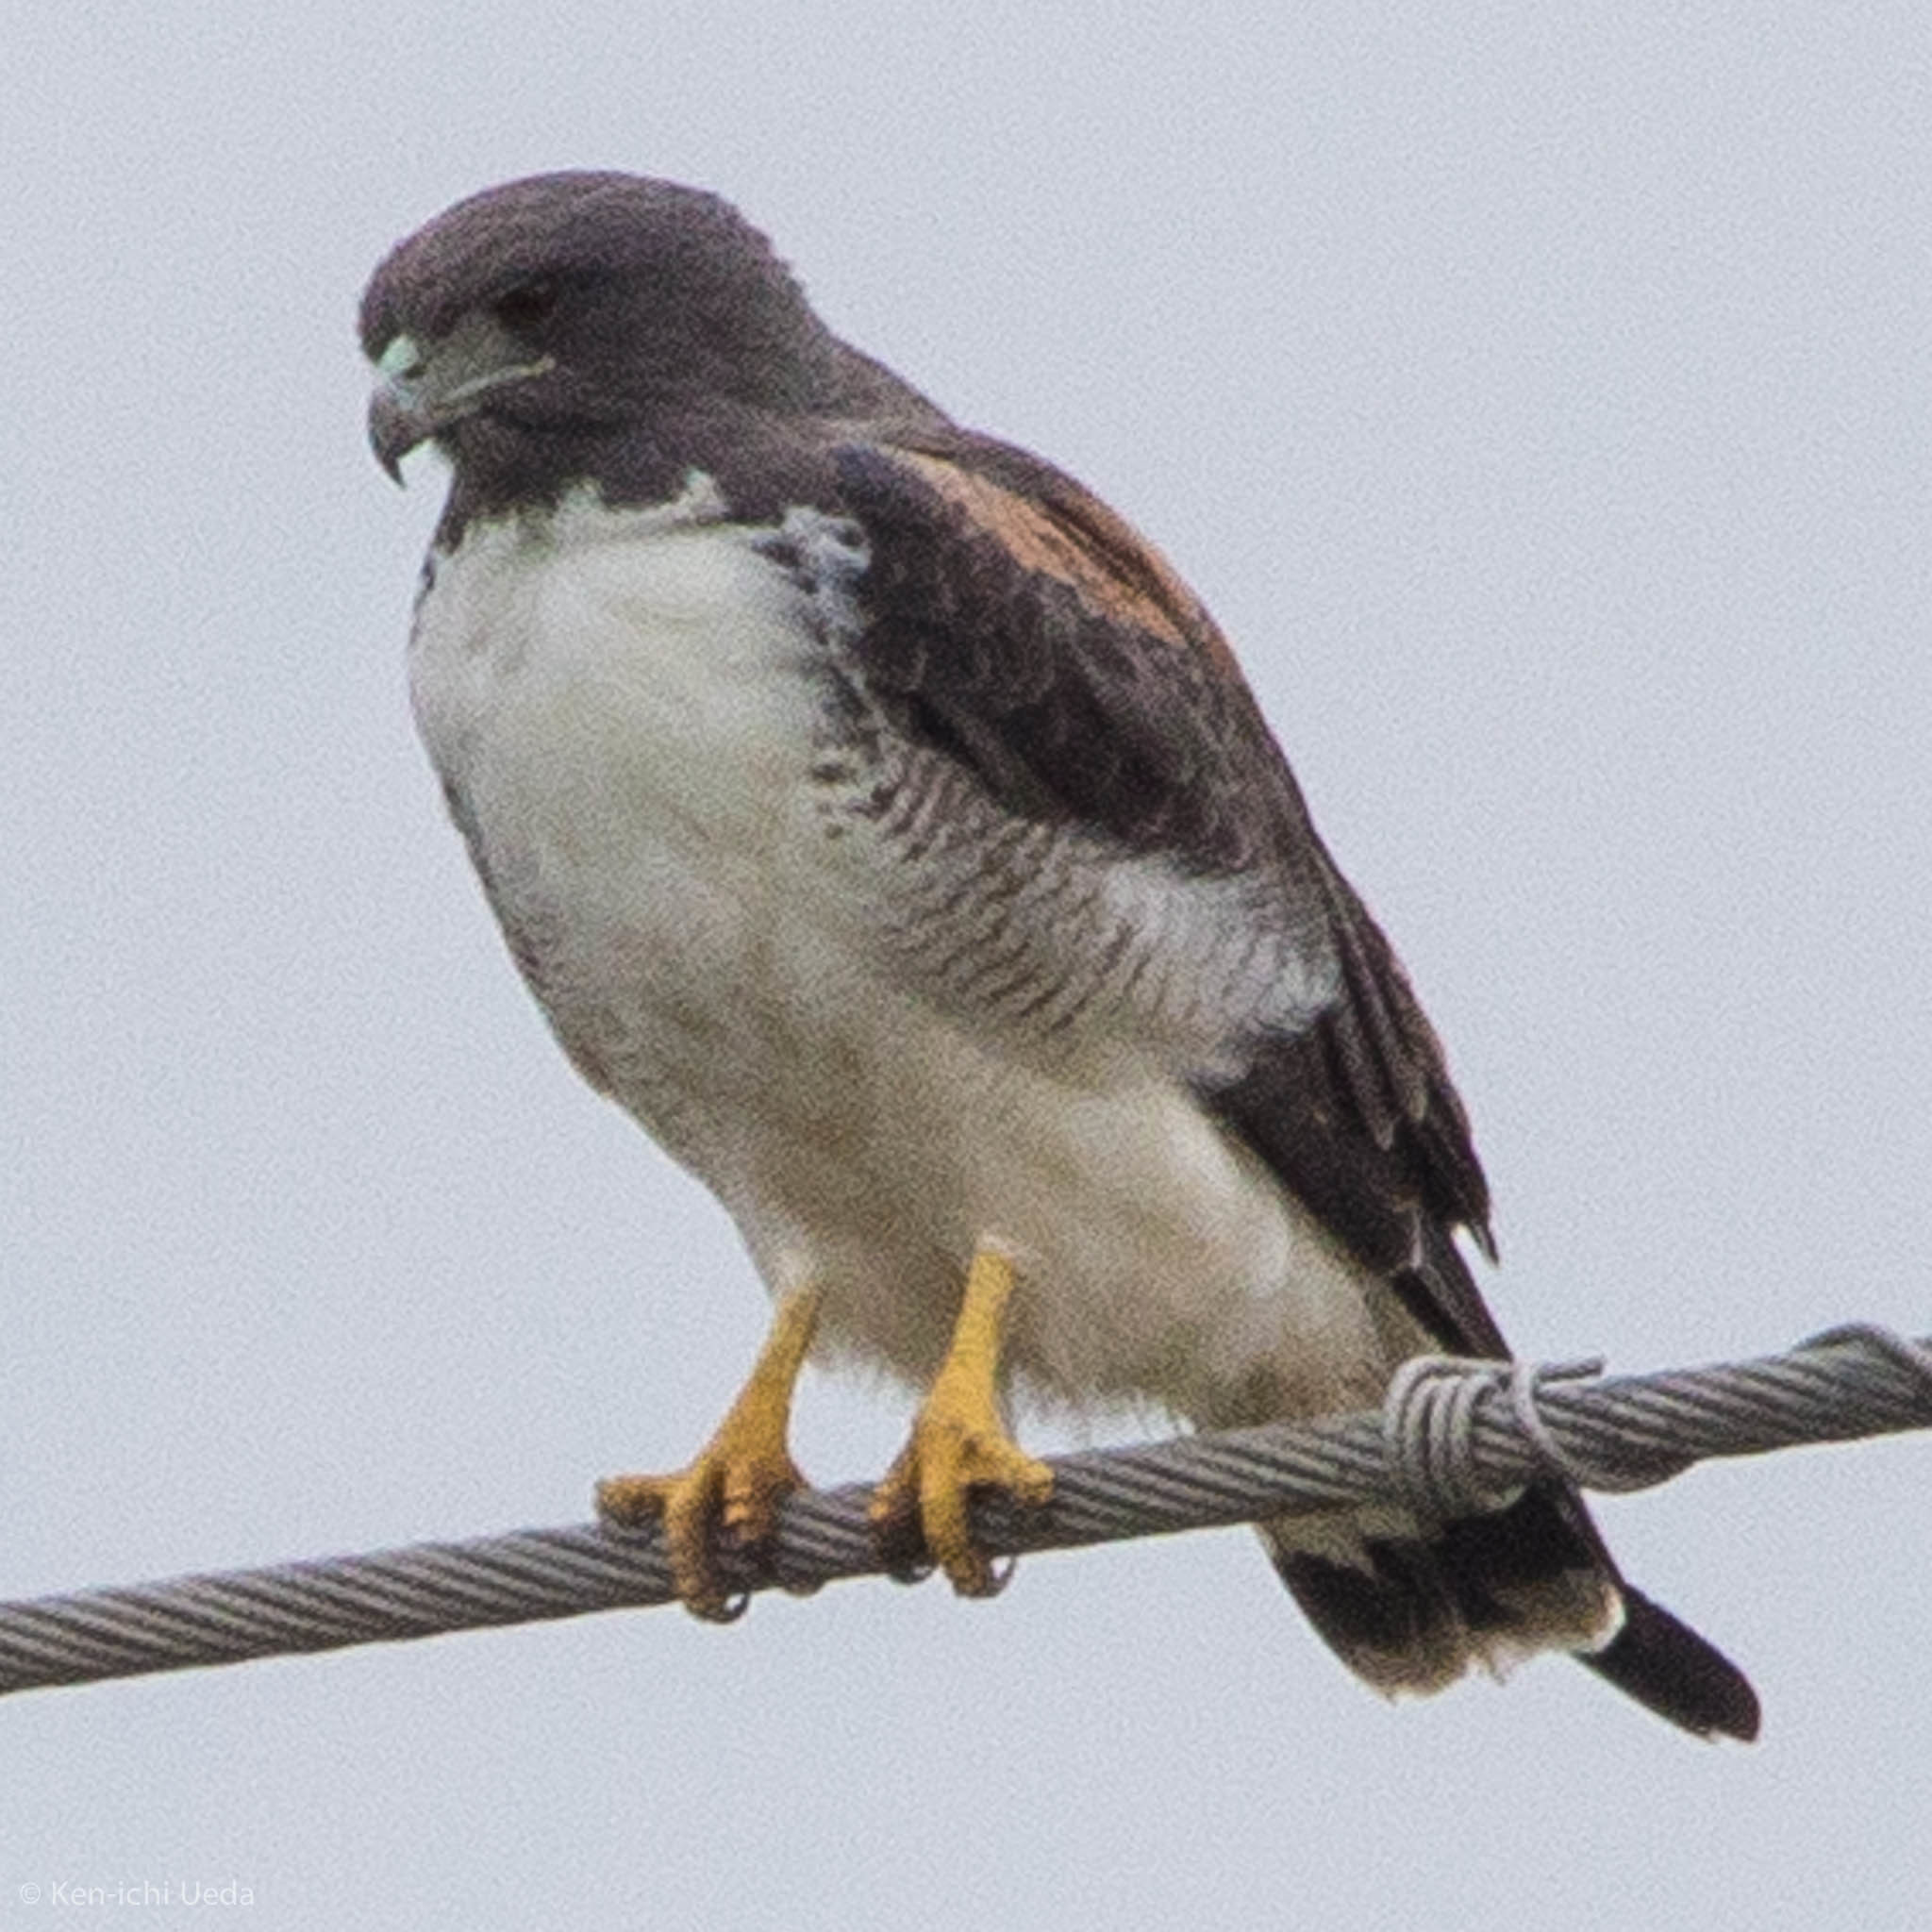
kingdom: Animalia
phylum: Chordata
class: Aves
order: Accipitriformes
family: Accipitridae
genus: Buteo
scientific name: Buteo albicaudatus
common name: White-tailed hawk
